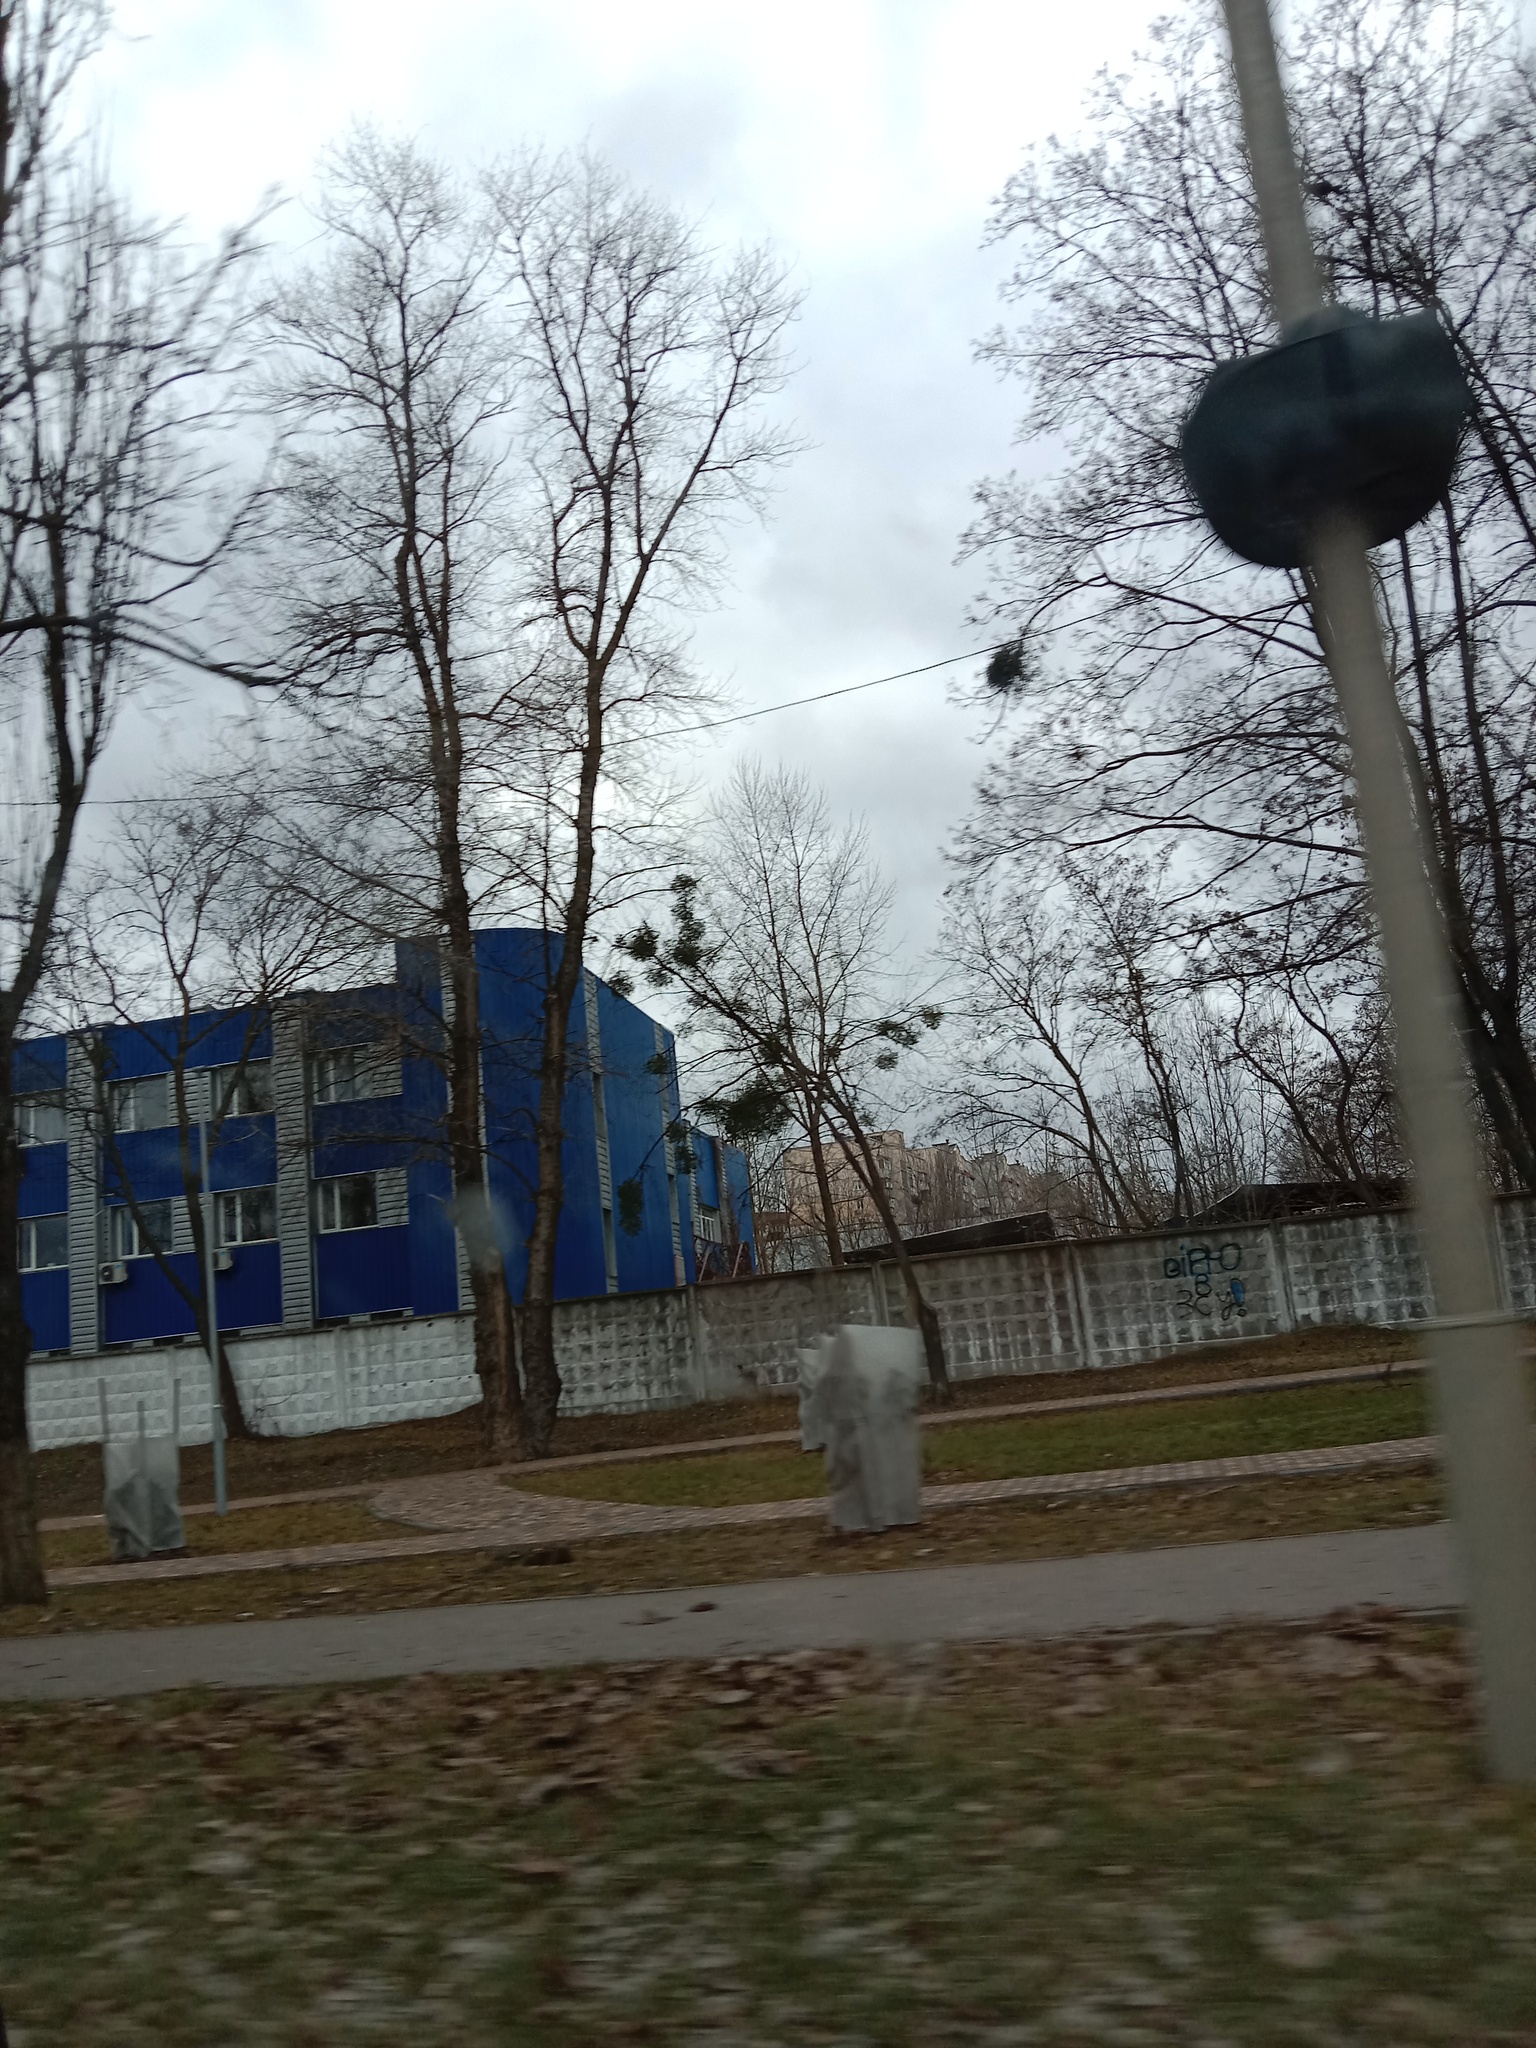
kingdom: Plantae
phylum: Tracheophyta
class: Magnoliopsida
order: Santalales
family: Viscaceae
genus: Viscum
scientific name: Viscum album
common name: Mistletoe
